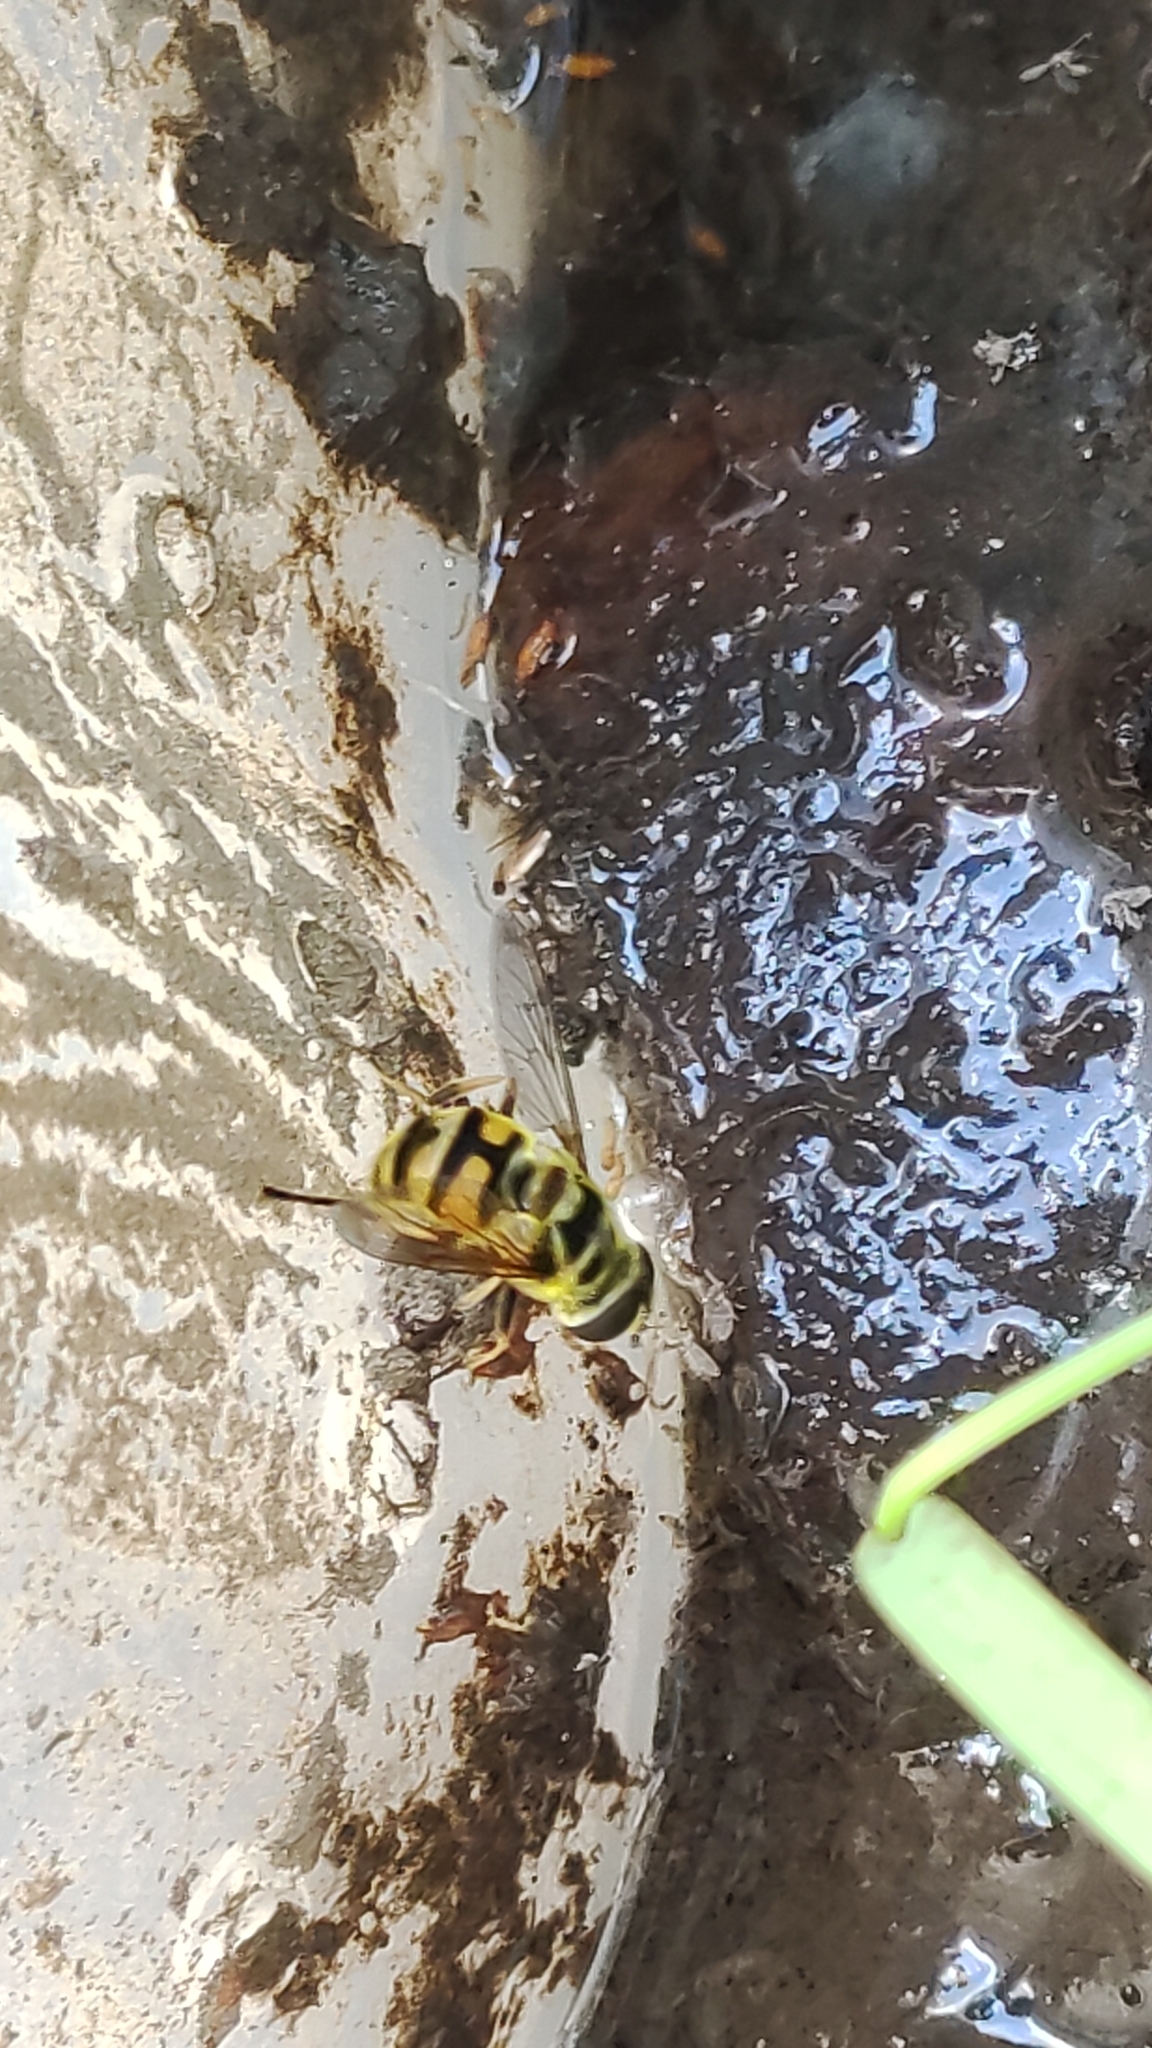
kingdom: Animalia
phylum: Arthropoda
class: Insecta
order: Diptera
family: Syrphidae
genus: Myathropa
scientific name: Myathropa florea
